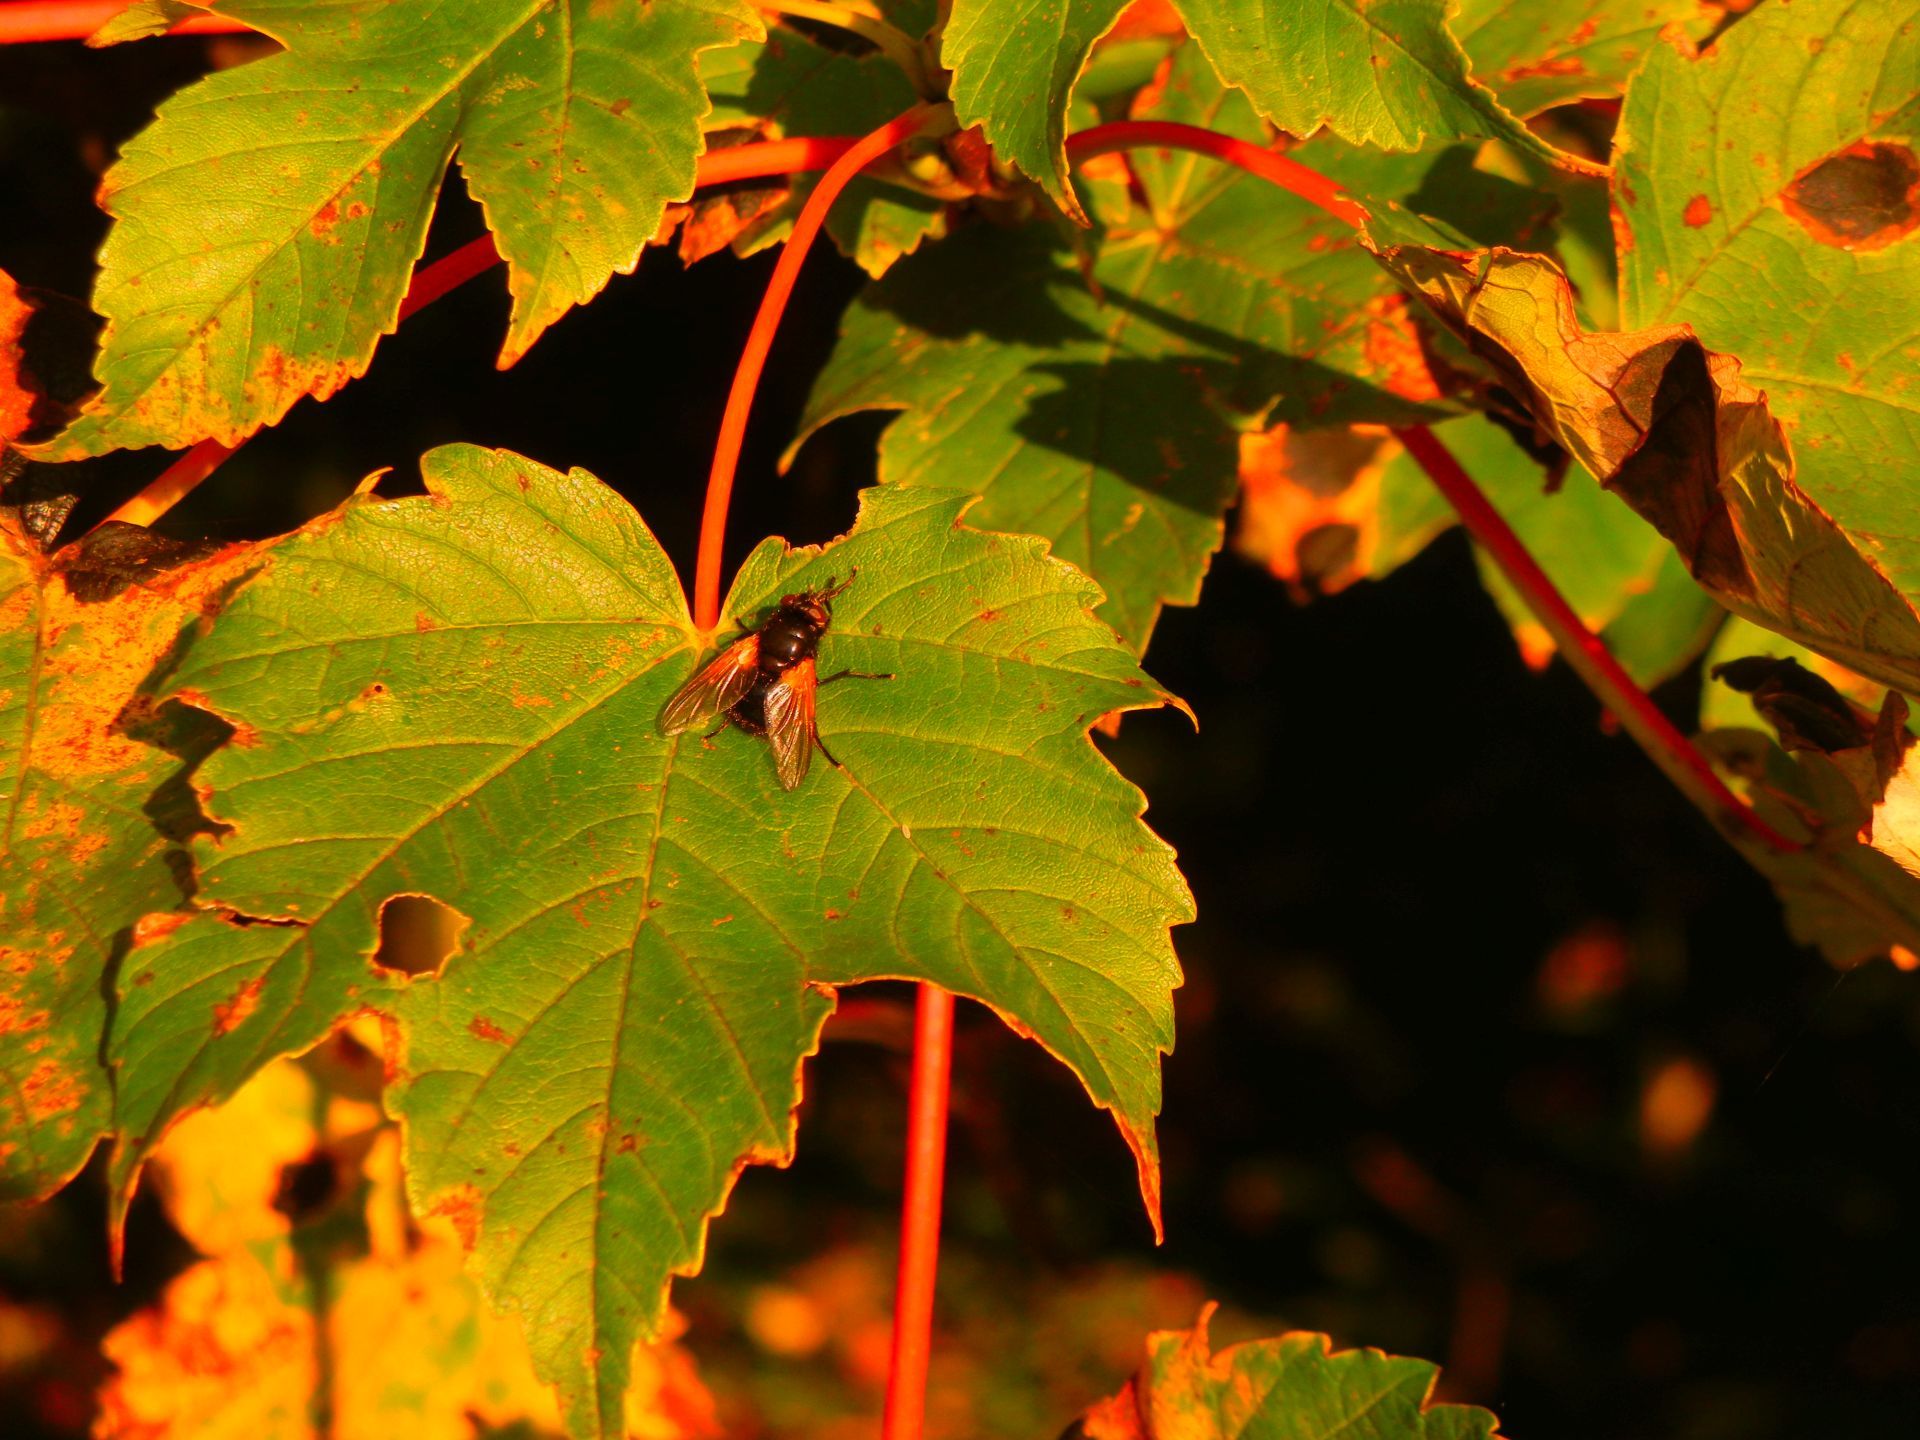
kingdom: Plantae
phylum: Tracheophyta
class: Magnoliopsida
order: Sapindales
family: Sapindaceae
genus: Acer
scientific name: Acer pseudoplatanus
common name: Sycamore
